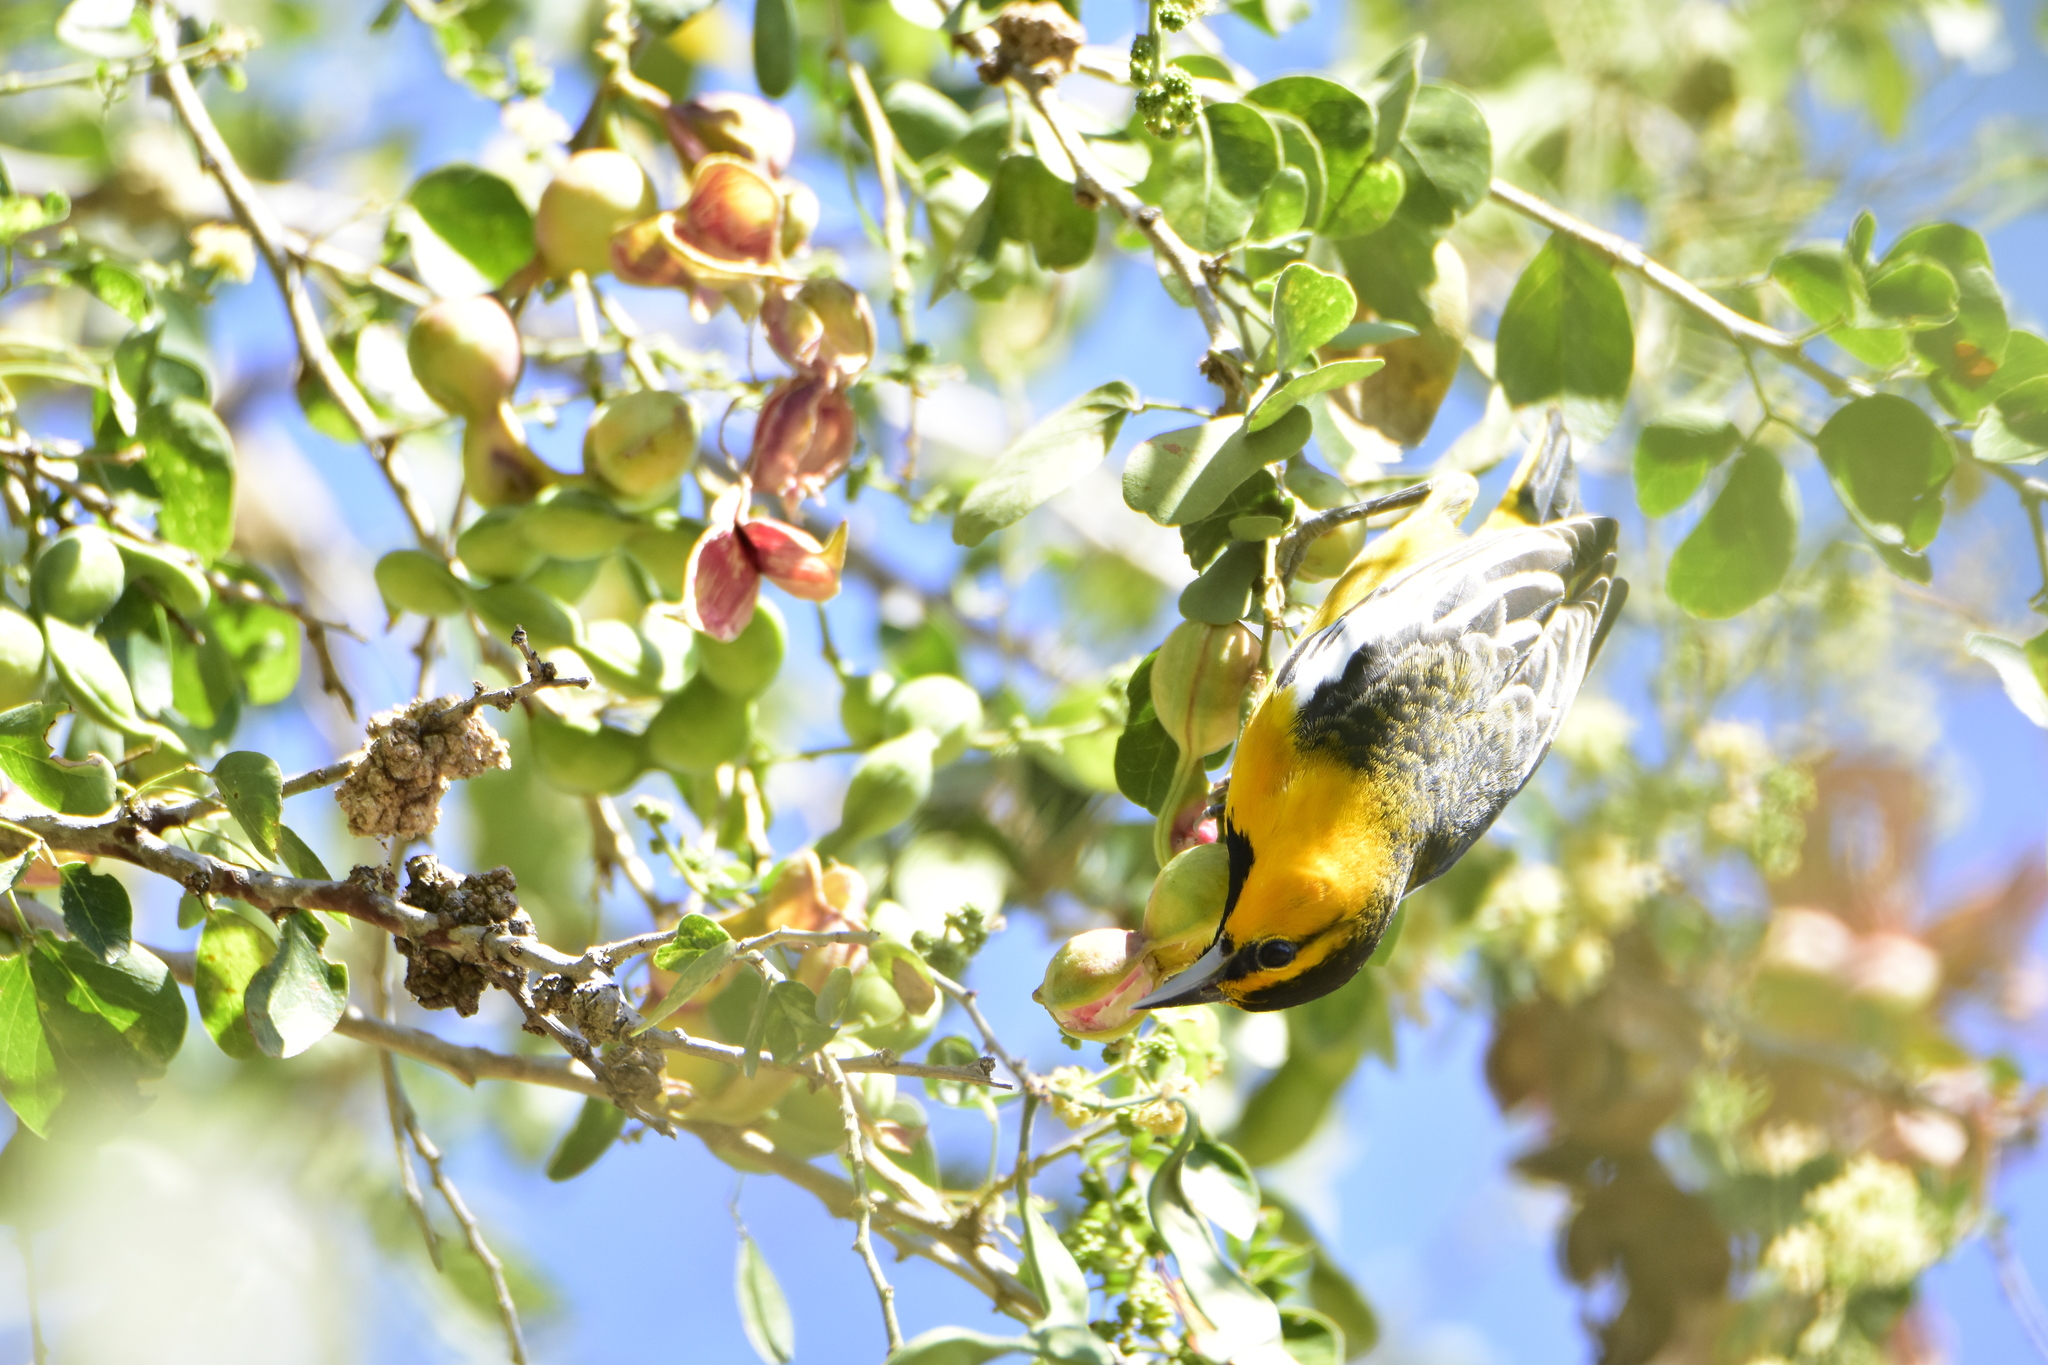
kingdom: Animalia
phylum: Chordata
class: Aves
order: Passeriformes
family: Icteridae
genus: Icterus
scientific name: Icterus bullockii
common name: Bullock's oriole
